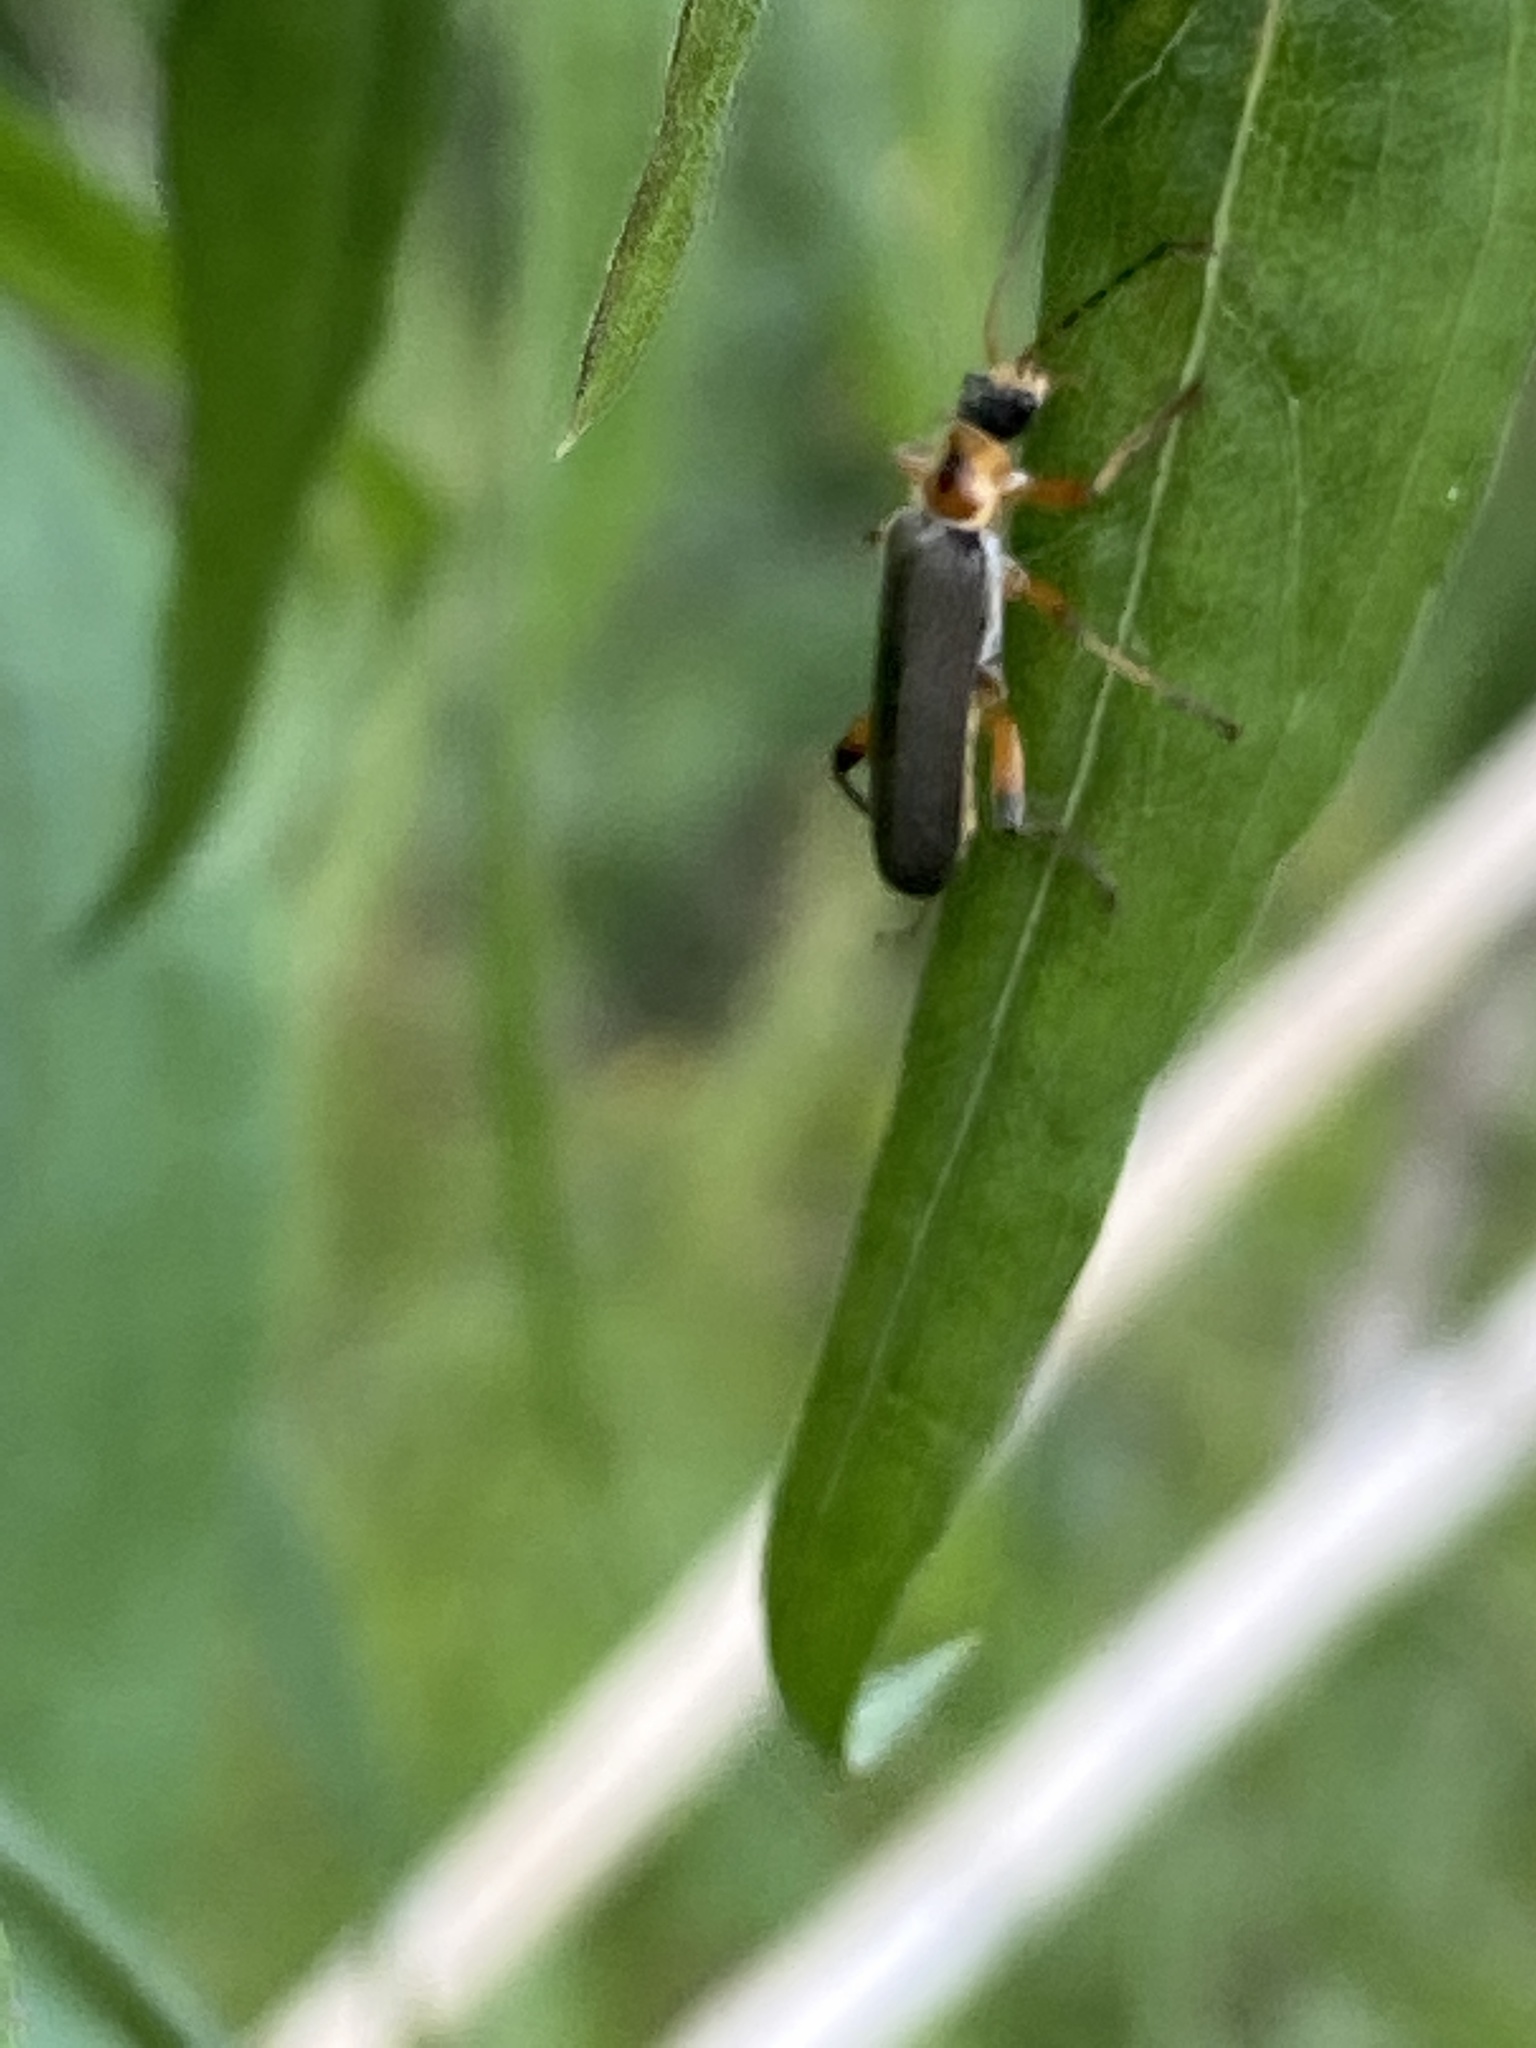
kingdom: Animalia
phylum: Arthropoda
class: Insecta
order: Coleoptera
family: Cantharidae
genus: Cantharis
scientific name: Cantharis nigricans
